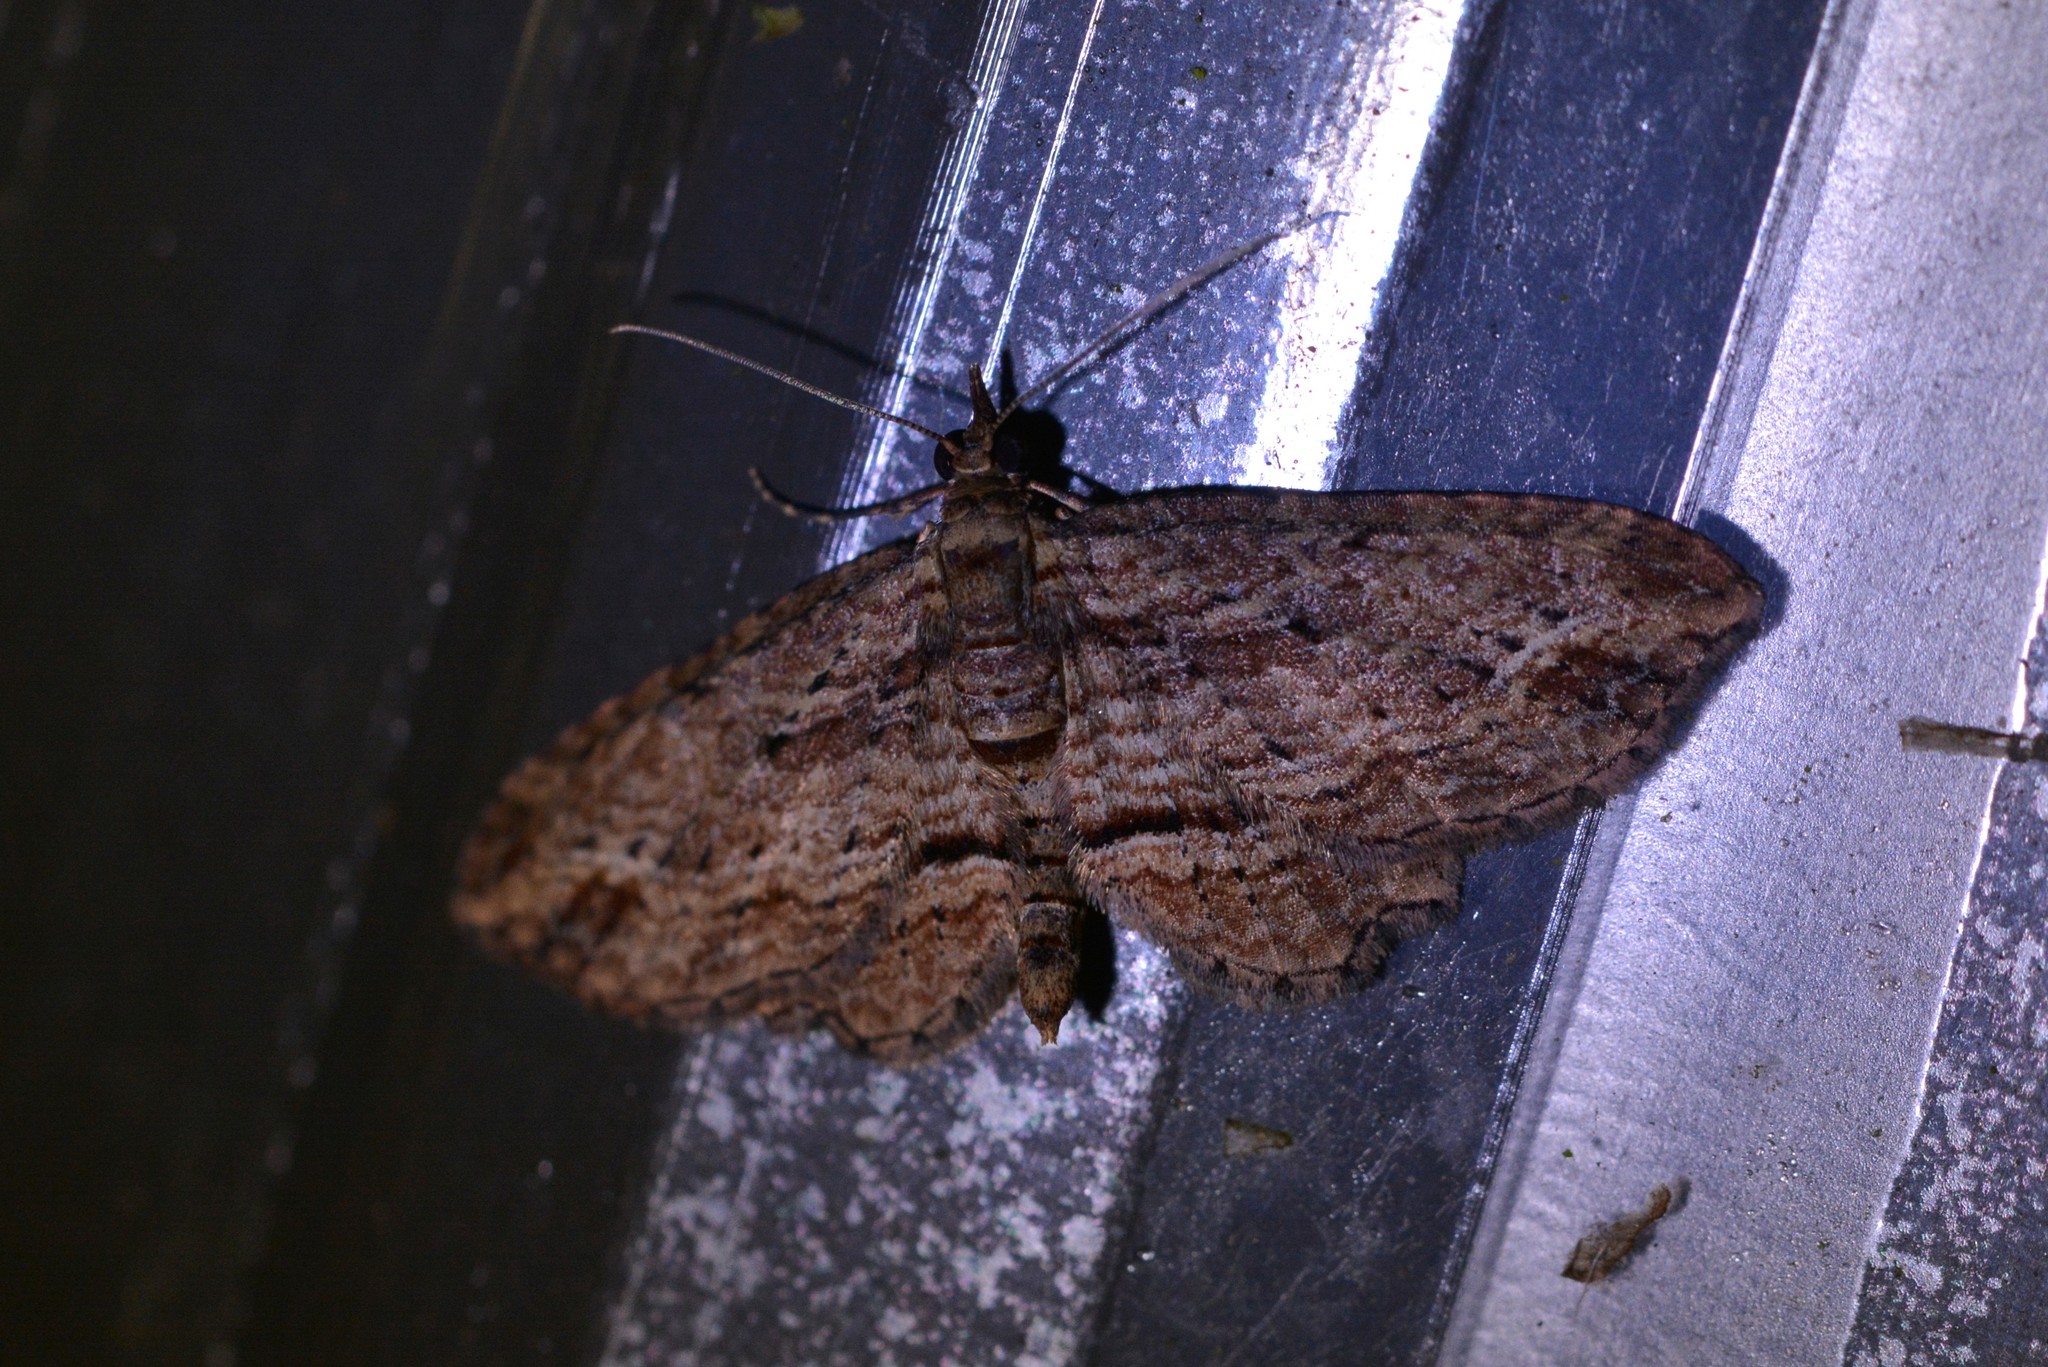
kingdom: Animalia
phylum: Arthropoda
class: Insecta
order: Lepidoptera
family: Geometridae
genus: Chloroclystis
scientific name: Chloroclystis filata
